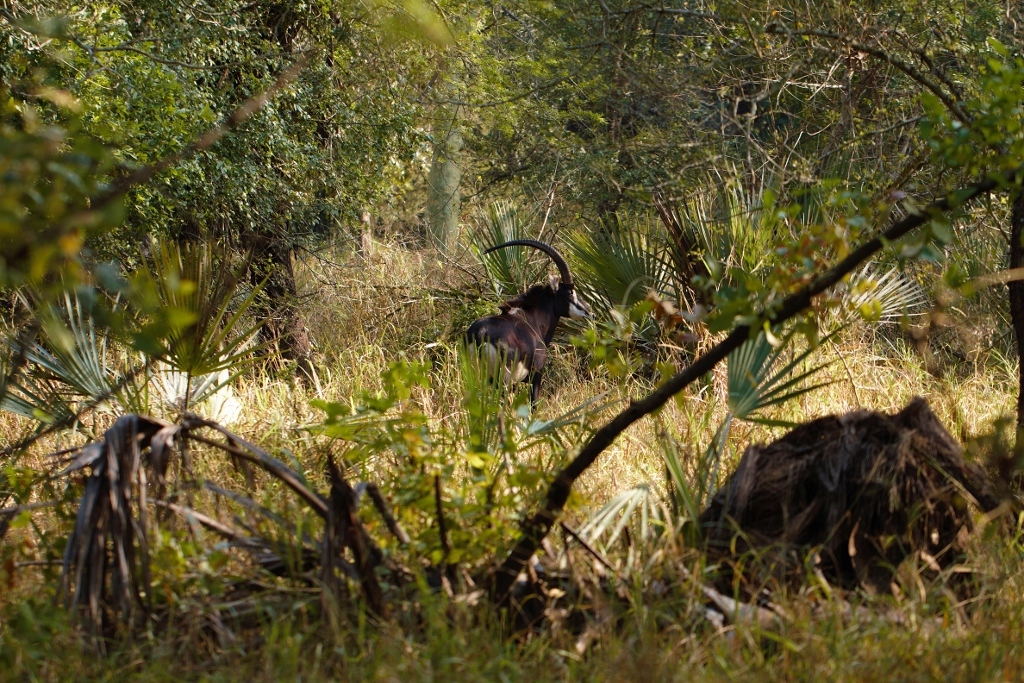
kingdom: Animalia
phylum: Chordata
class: Mammalia
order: Artiodactyla
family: Bovidae
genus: Hippotragus
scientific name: Hippotragus niger
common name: Sable antelope
